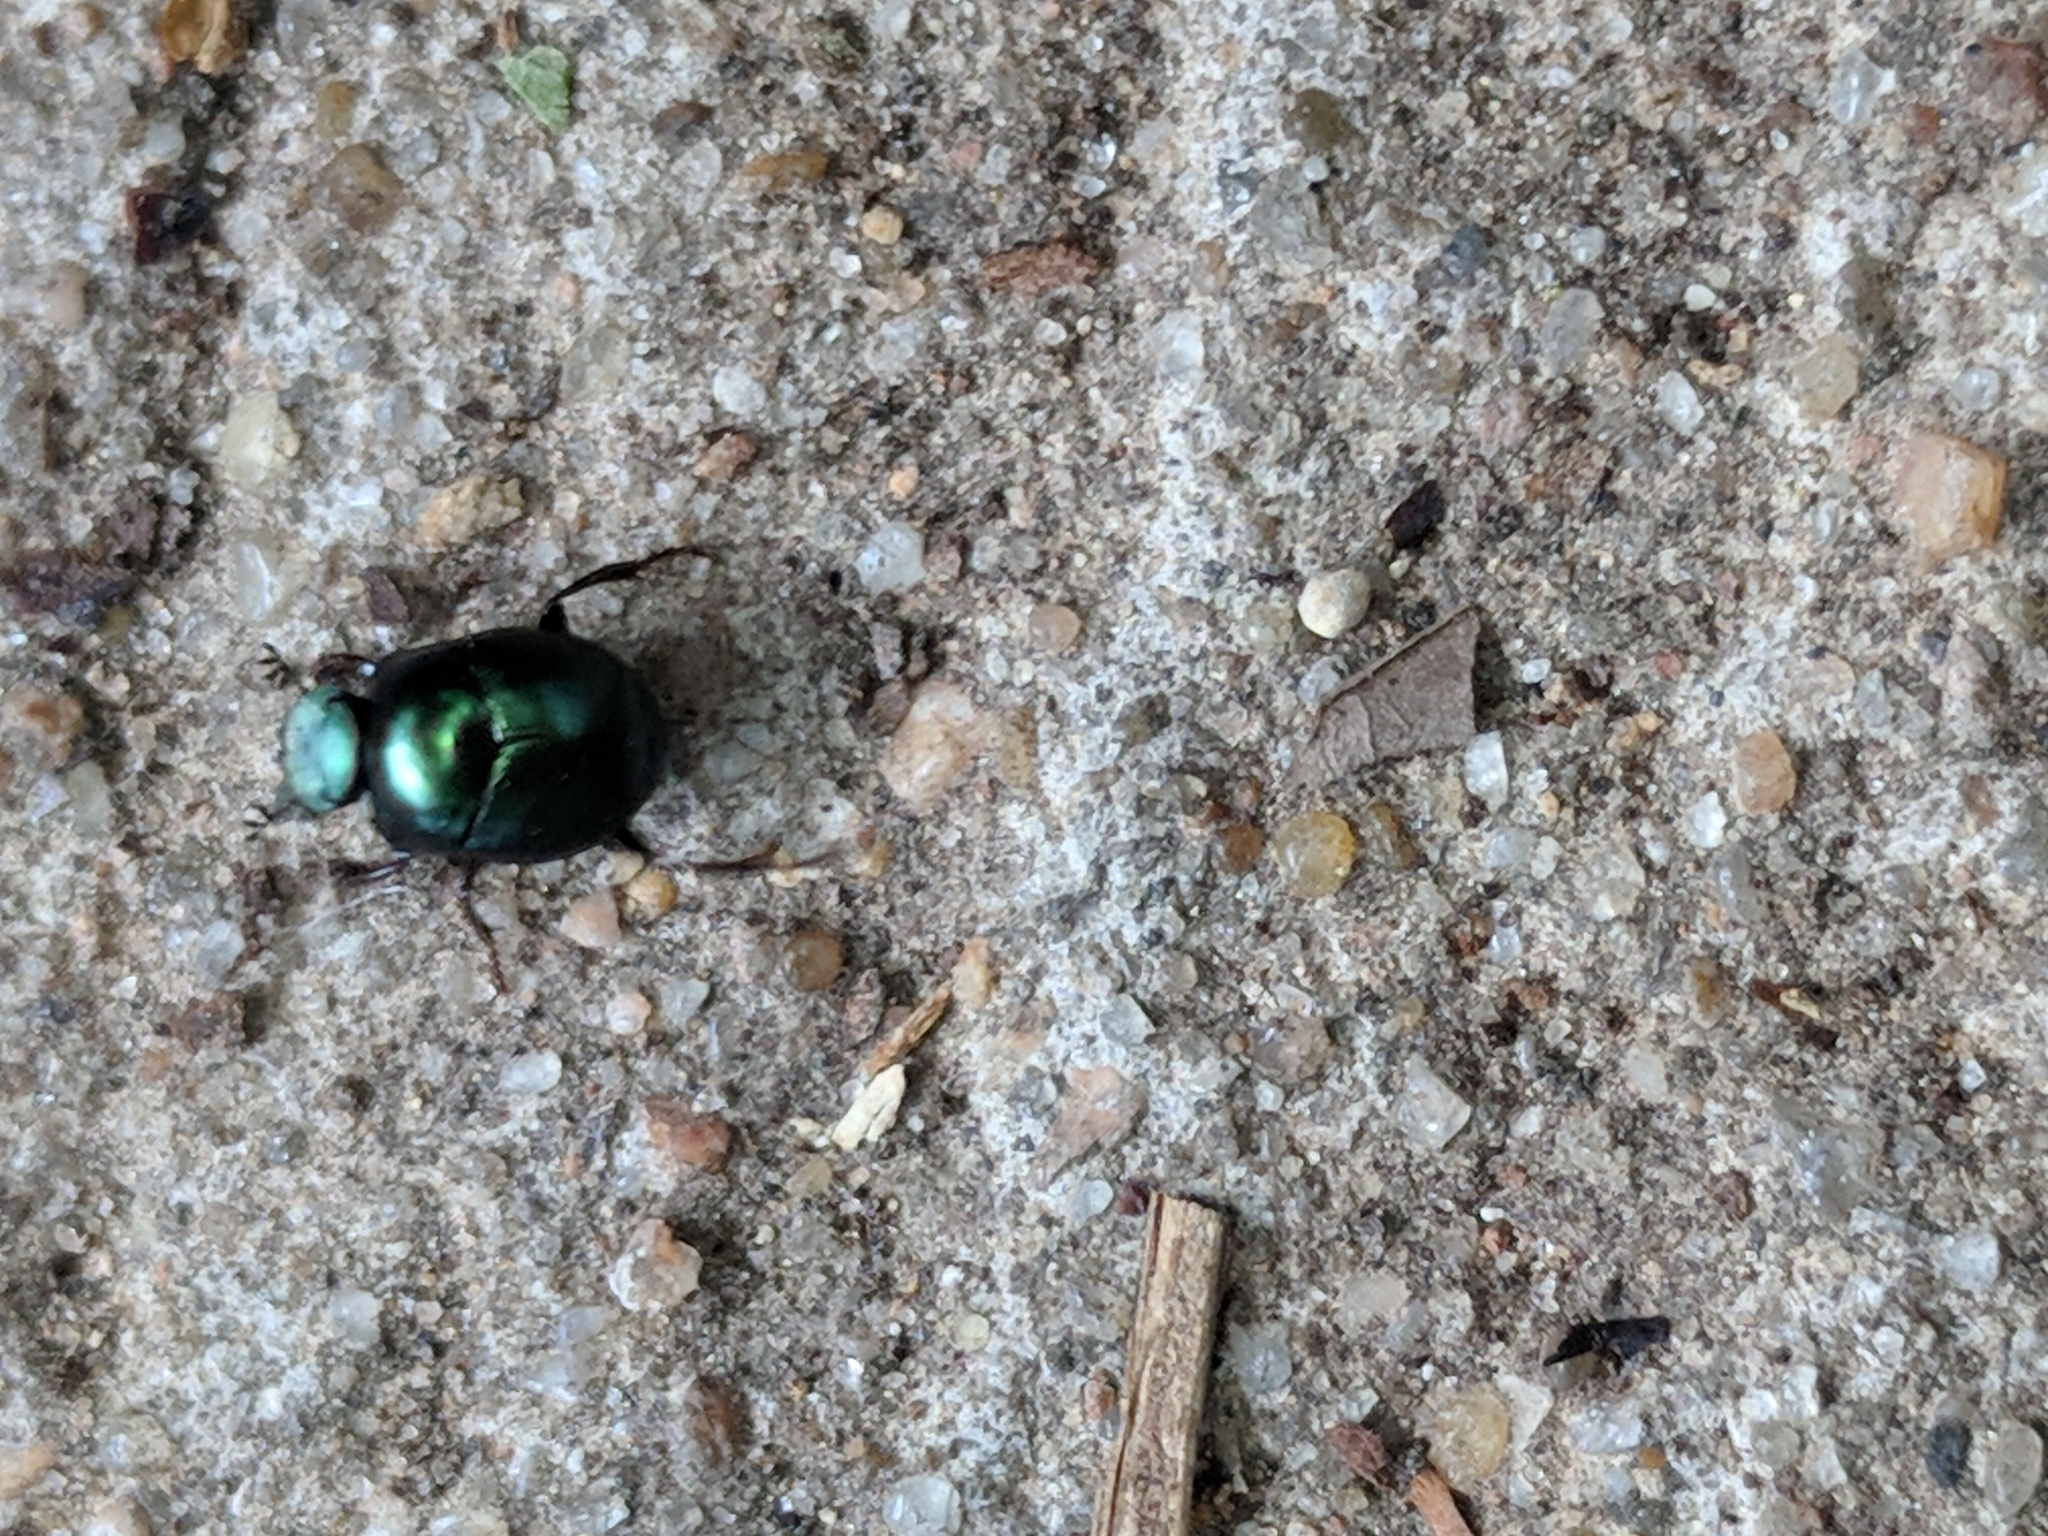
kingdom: Animalia
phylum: Arthropoda
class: Insecta
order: Coleoptera
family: Scarabaeidae
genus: Canthon
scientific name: Canthon viridis
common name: Tumblebug
